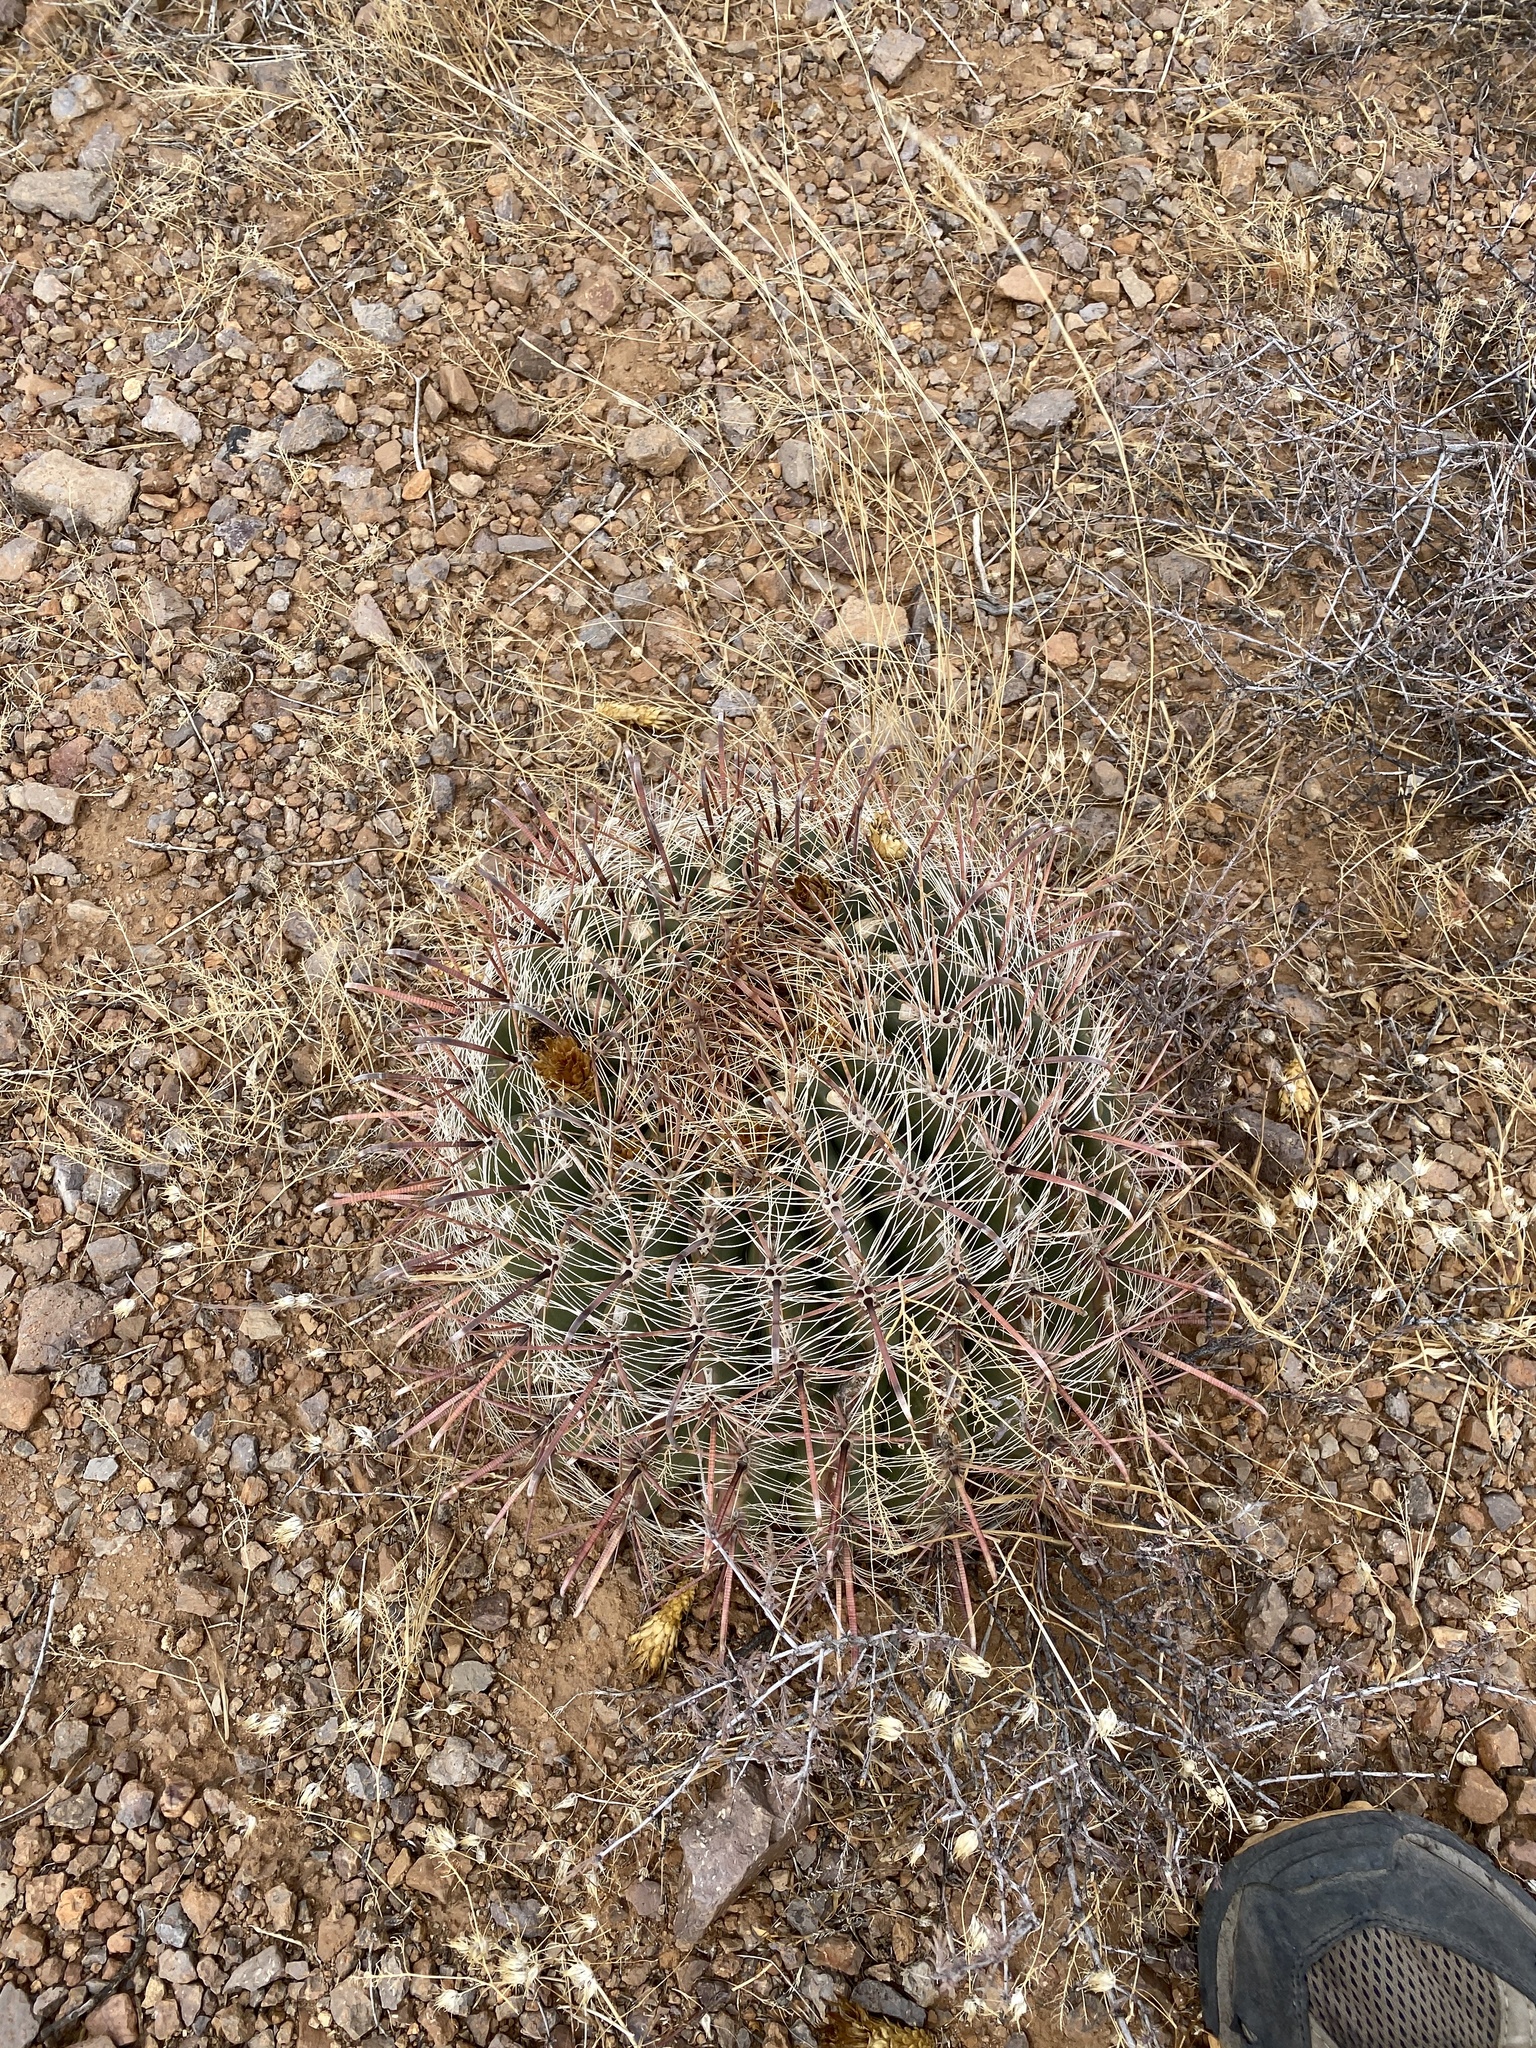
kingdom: Plantae
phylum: Tracheophyta
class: Magnoliopsida
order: Caryophyllales
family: Cactaceae
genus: Ferocactus
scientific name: Ferocactus wislizeni
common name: Candy barrel cactus
